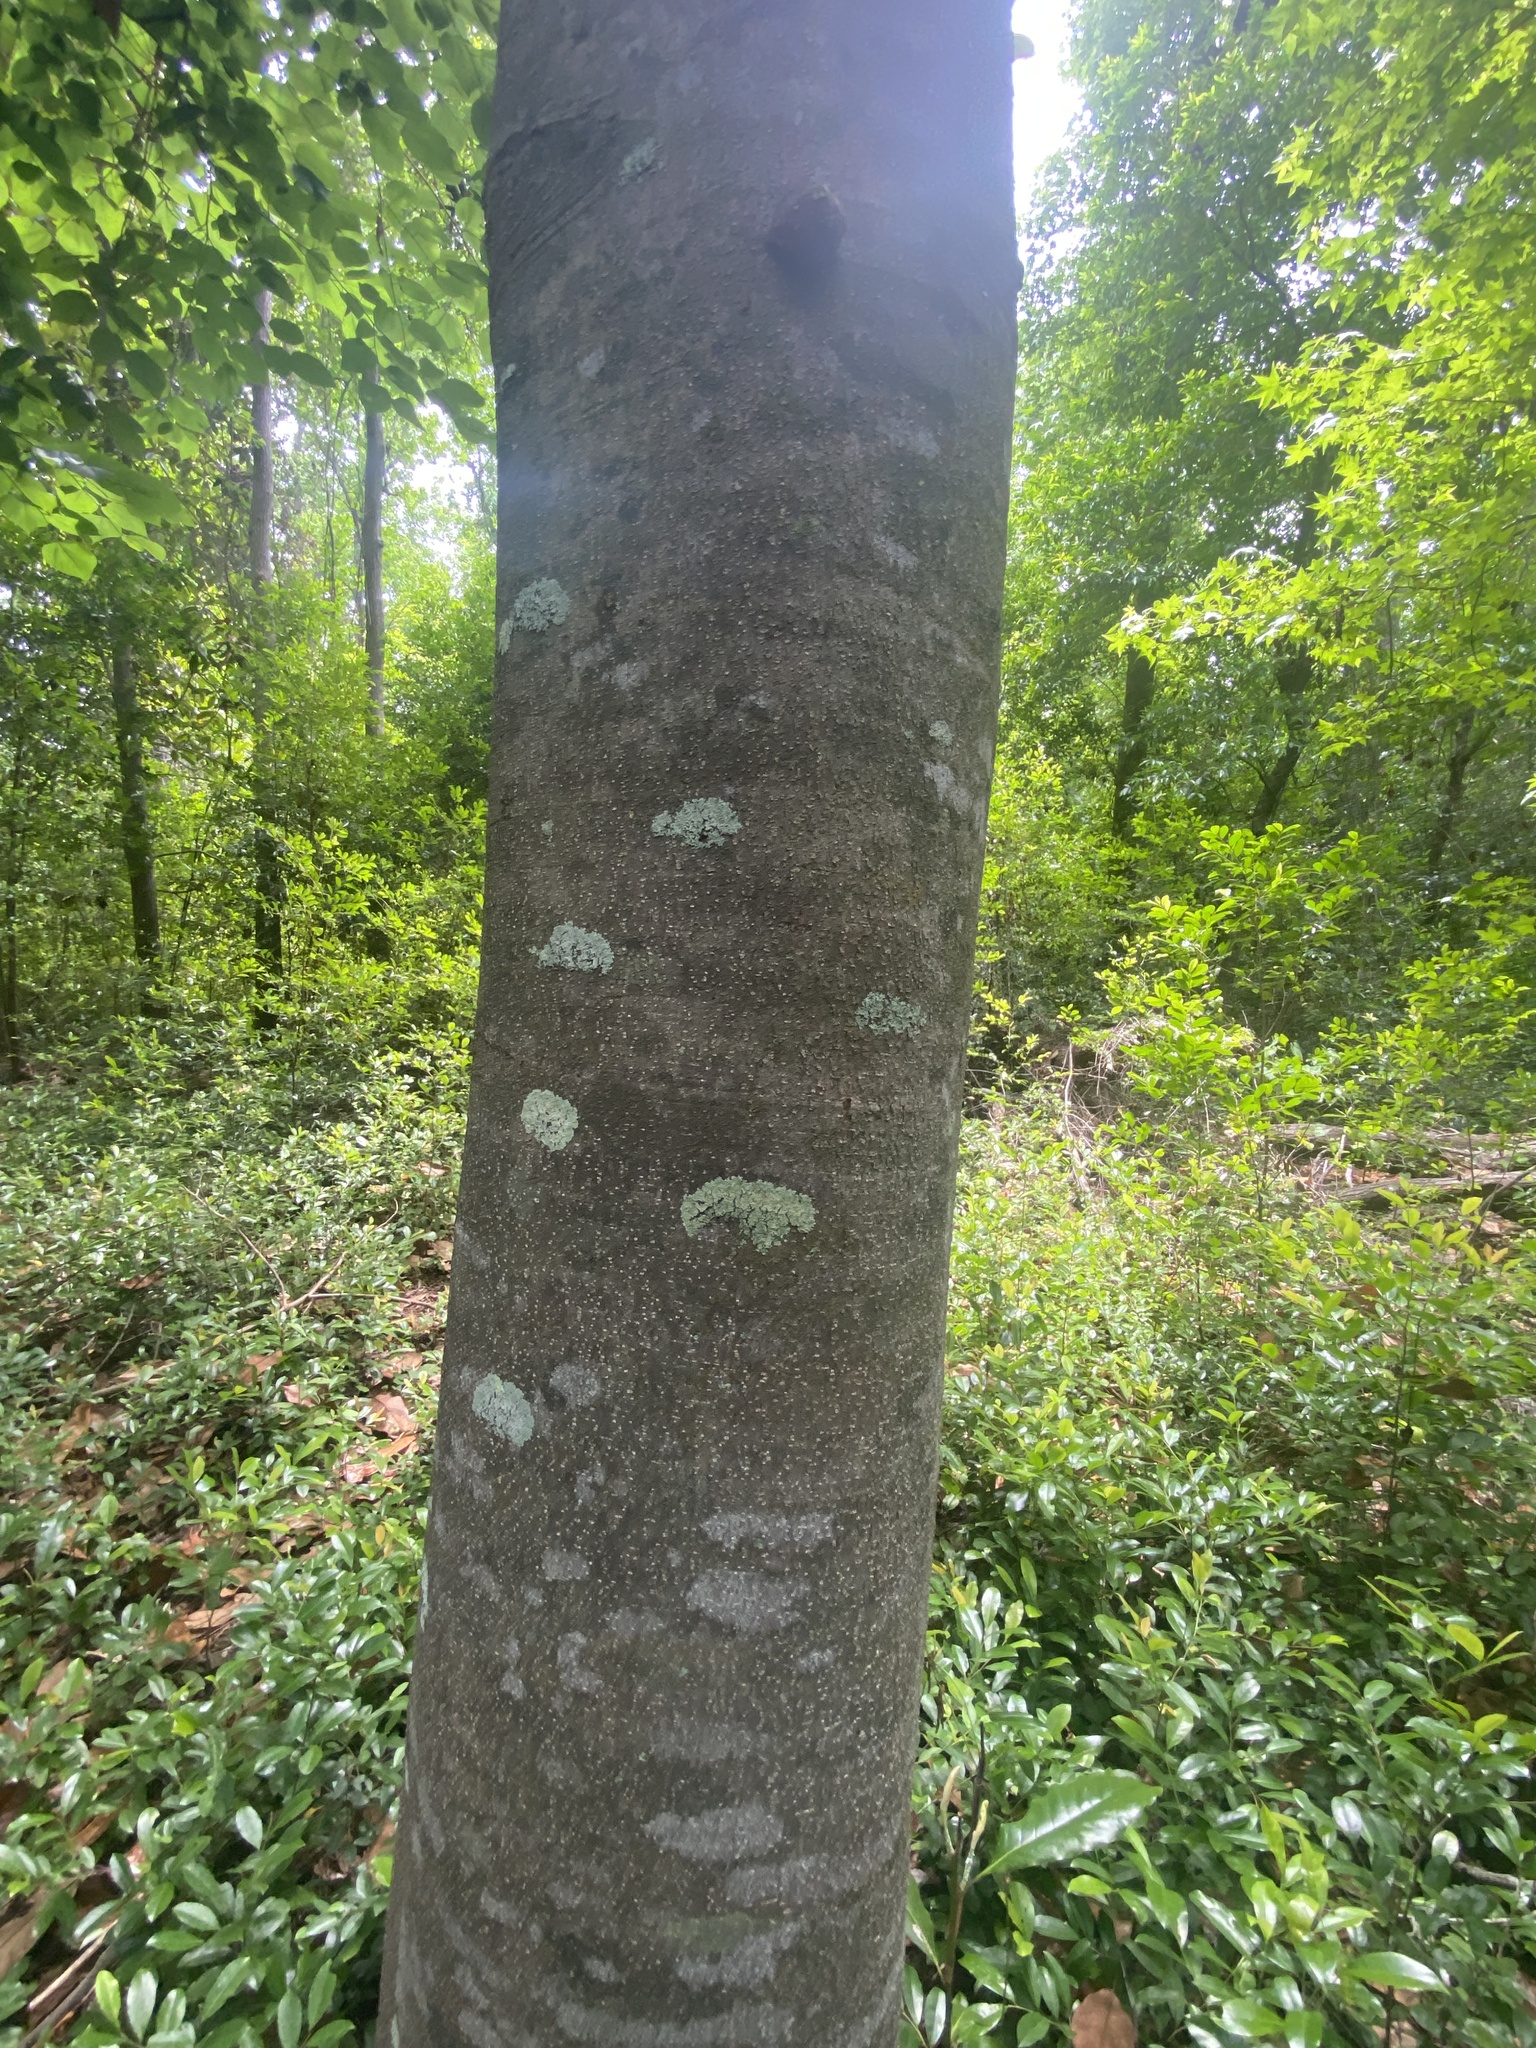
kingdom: Plantae
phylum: Tracheophyta
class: Magnoliopsida
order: Magnoliales
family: Magnoliaceae
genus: Magnolia
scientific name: Magnolia grandiflora
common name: Southern magnolia
